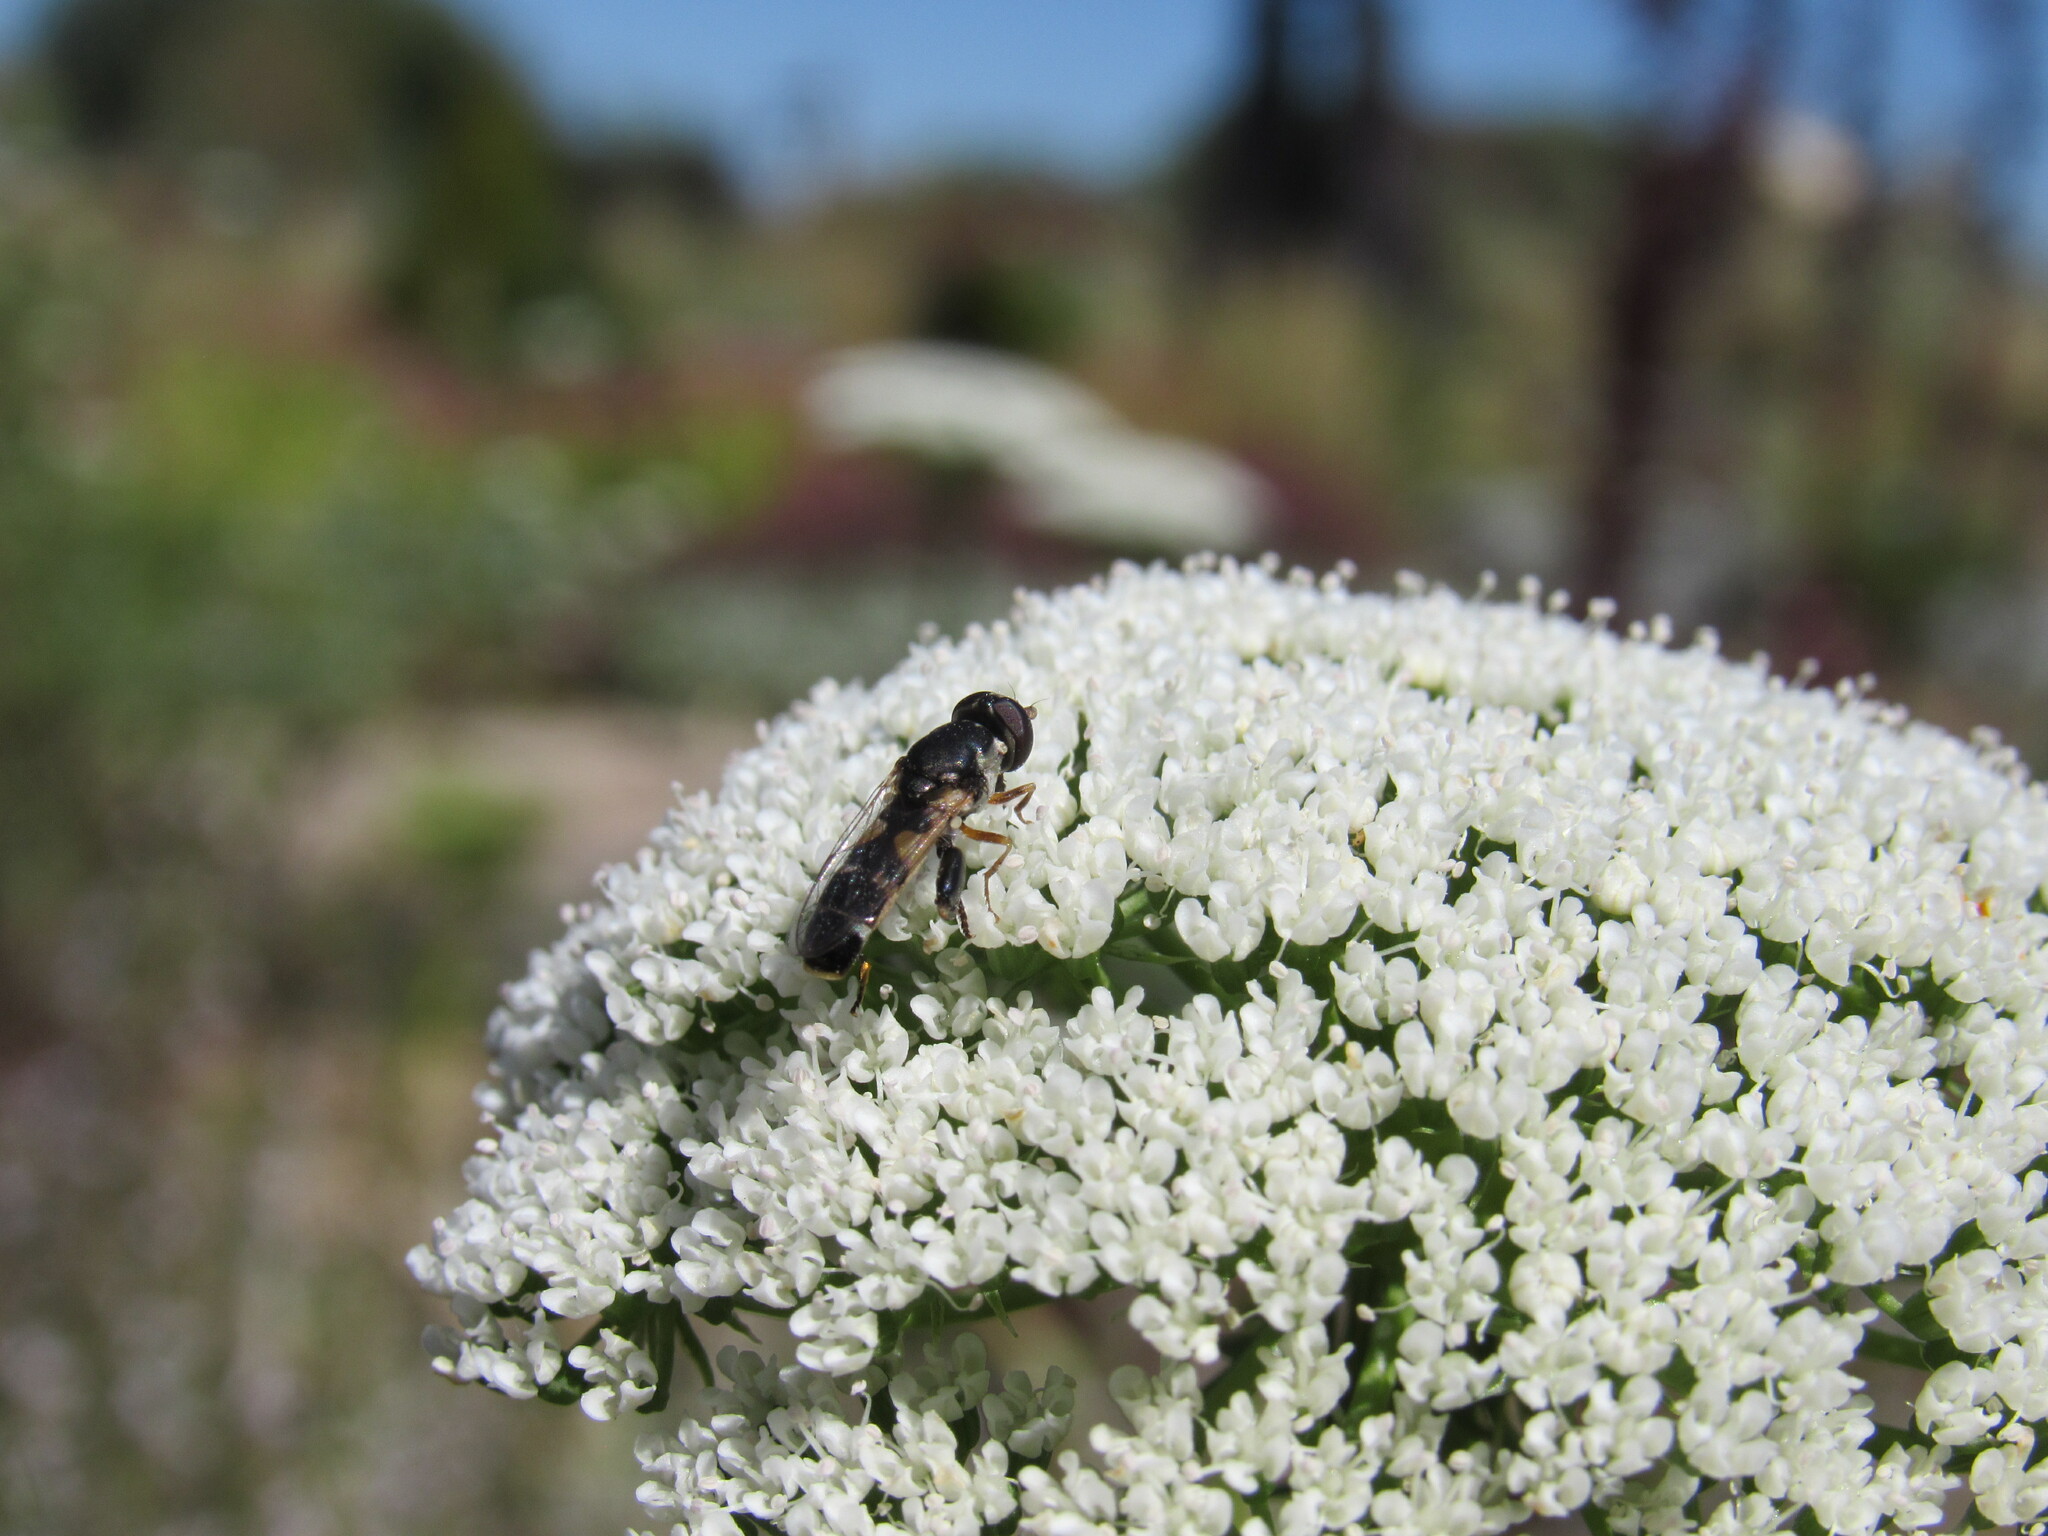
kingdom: Animalia
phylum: Arthropoda
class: Insecta
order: Diptera
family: Syrphidae
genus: Syritta
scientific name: Syritta pipiens
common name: Hover fly
